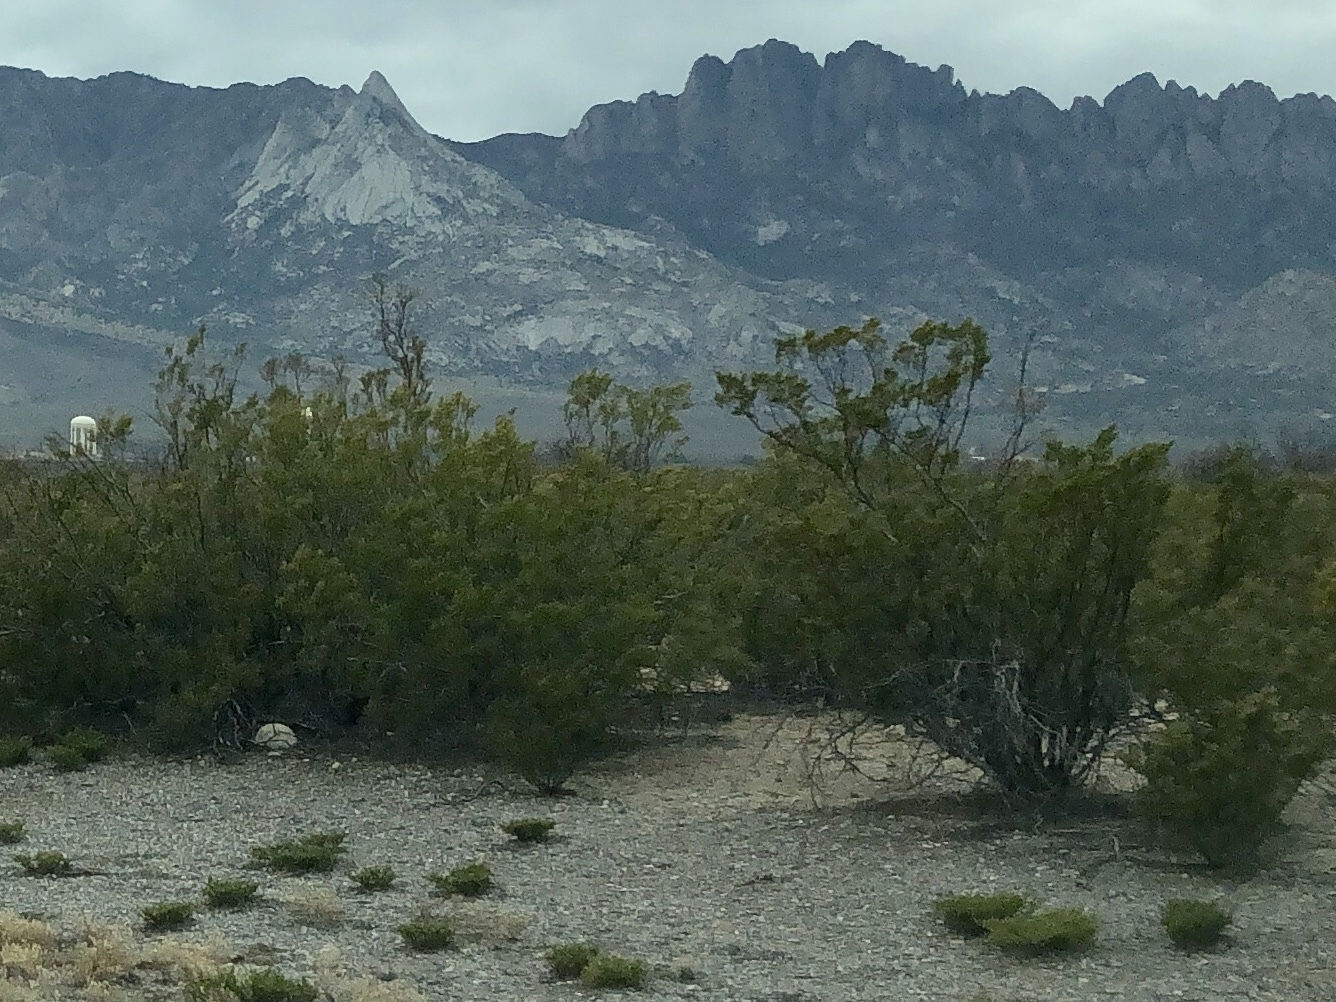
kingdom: Plantae
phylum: Tracheophyta
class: Magnoliopsida
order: Zygophyllales
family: Zygophyllaceae
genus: Larrea
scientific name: Larrea tridentata
